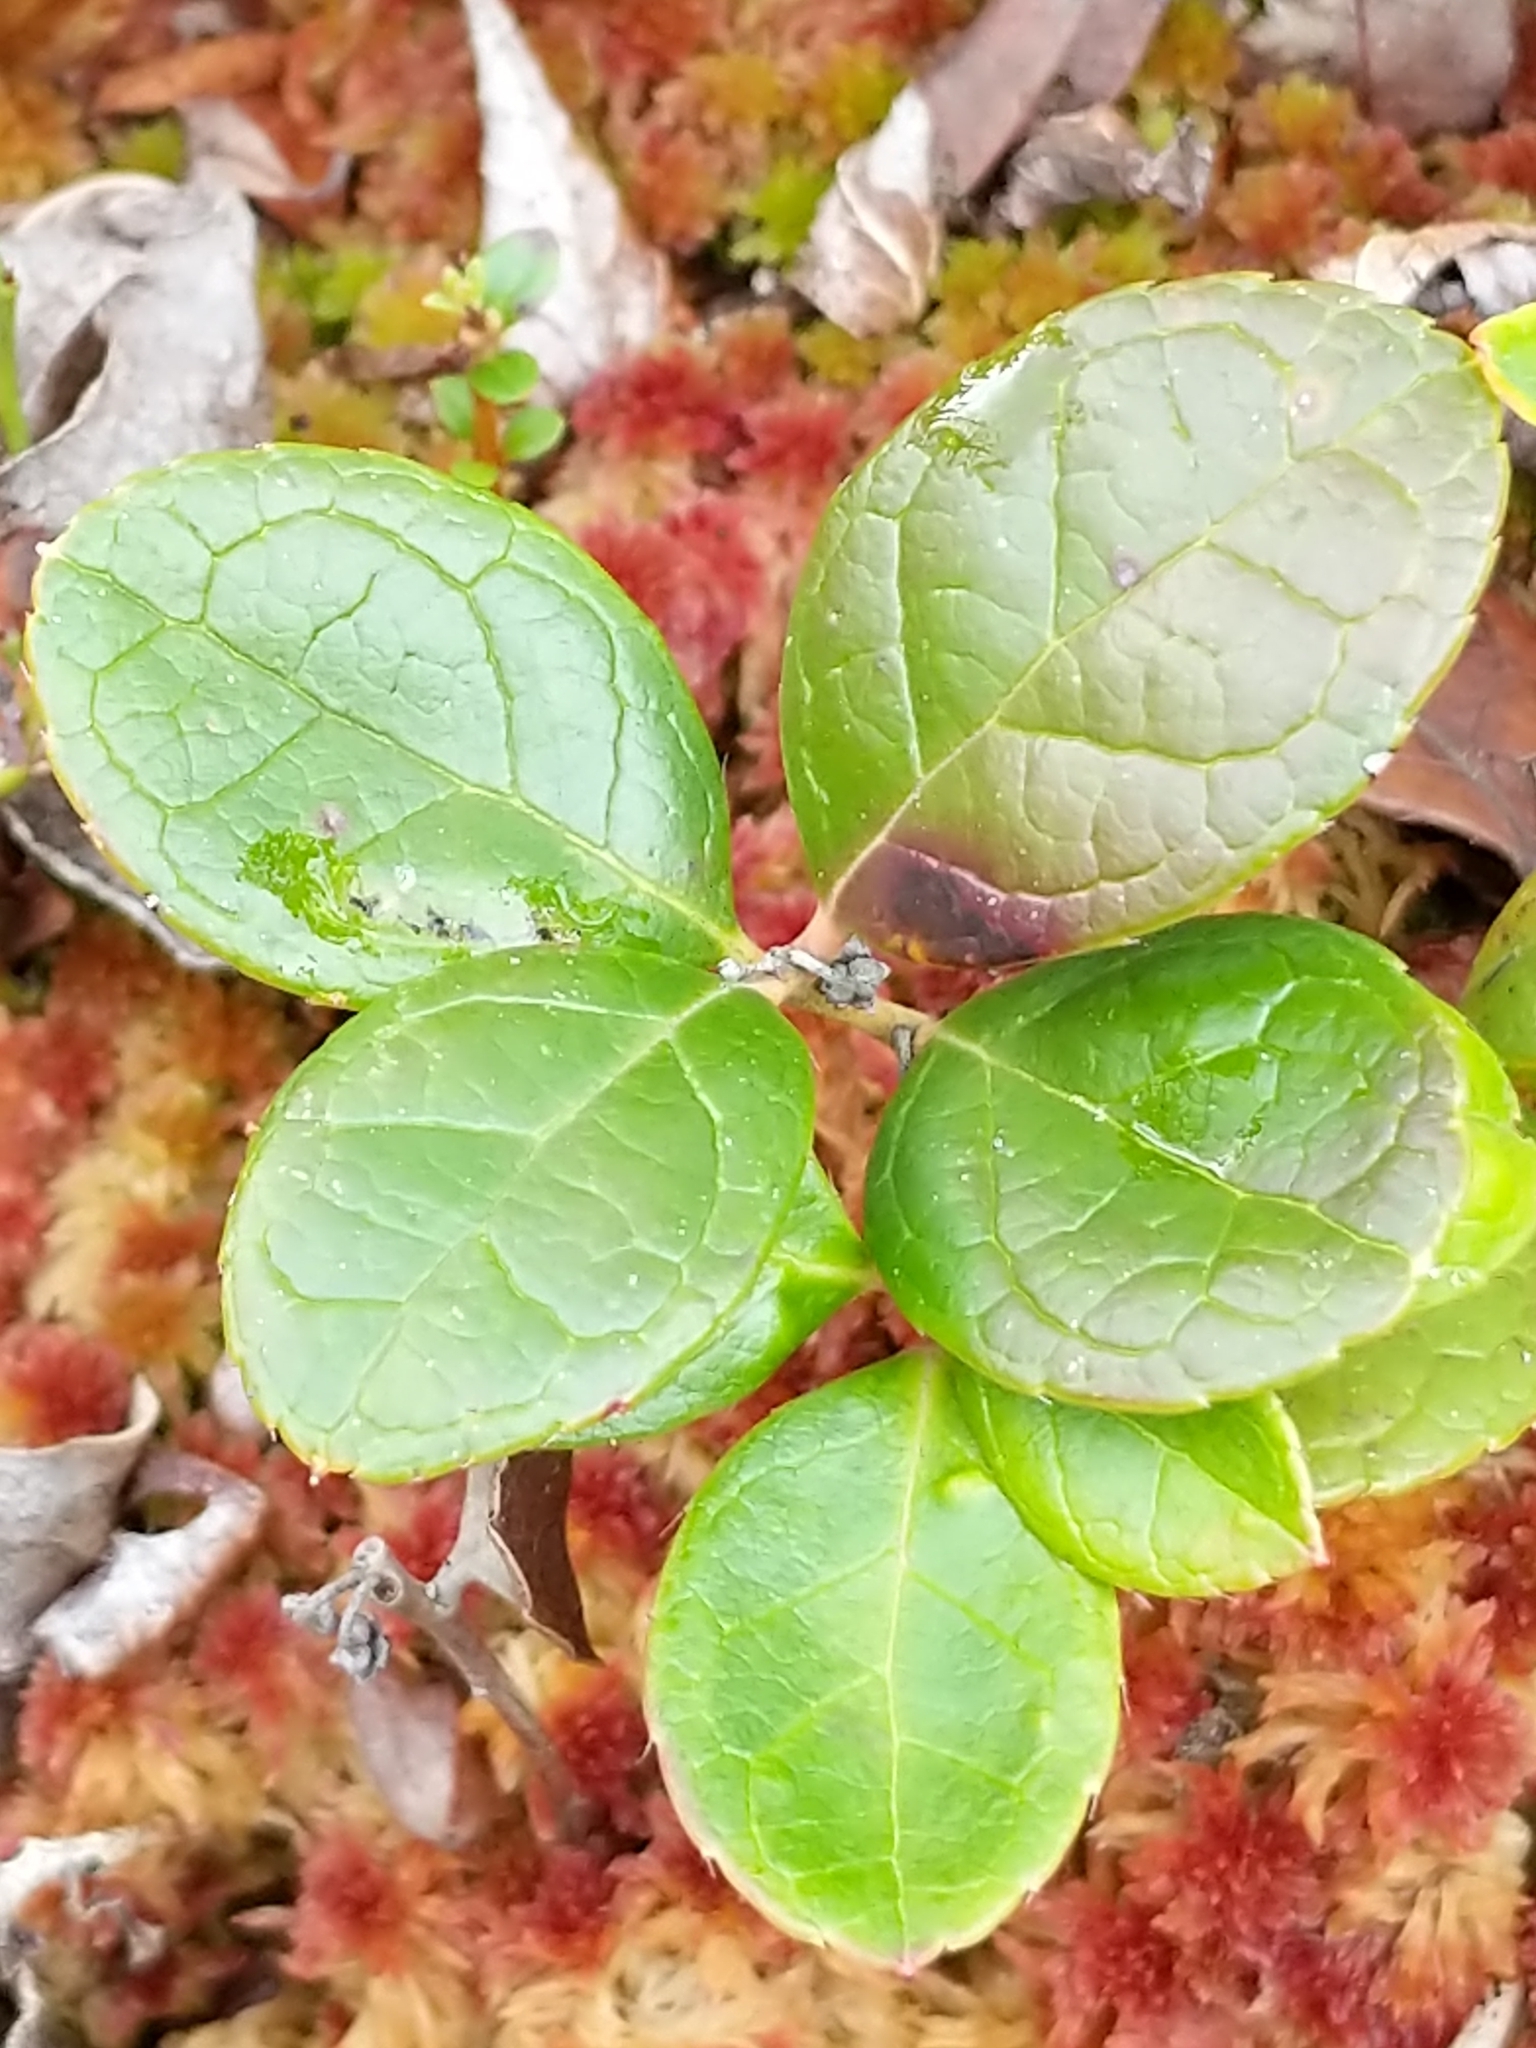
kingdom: Plantae
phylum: Tracheophyta
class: Magnoliopsida
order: Ericales
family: Ericaceae
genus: Gaultheria
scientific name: Gaultheria procumbens
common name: Checkerberry
